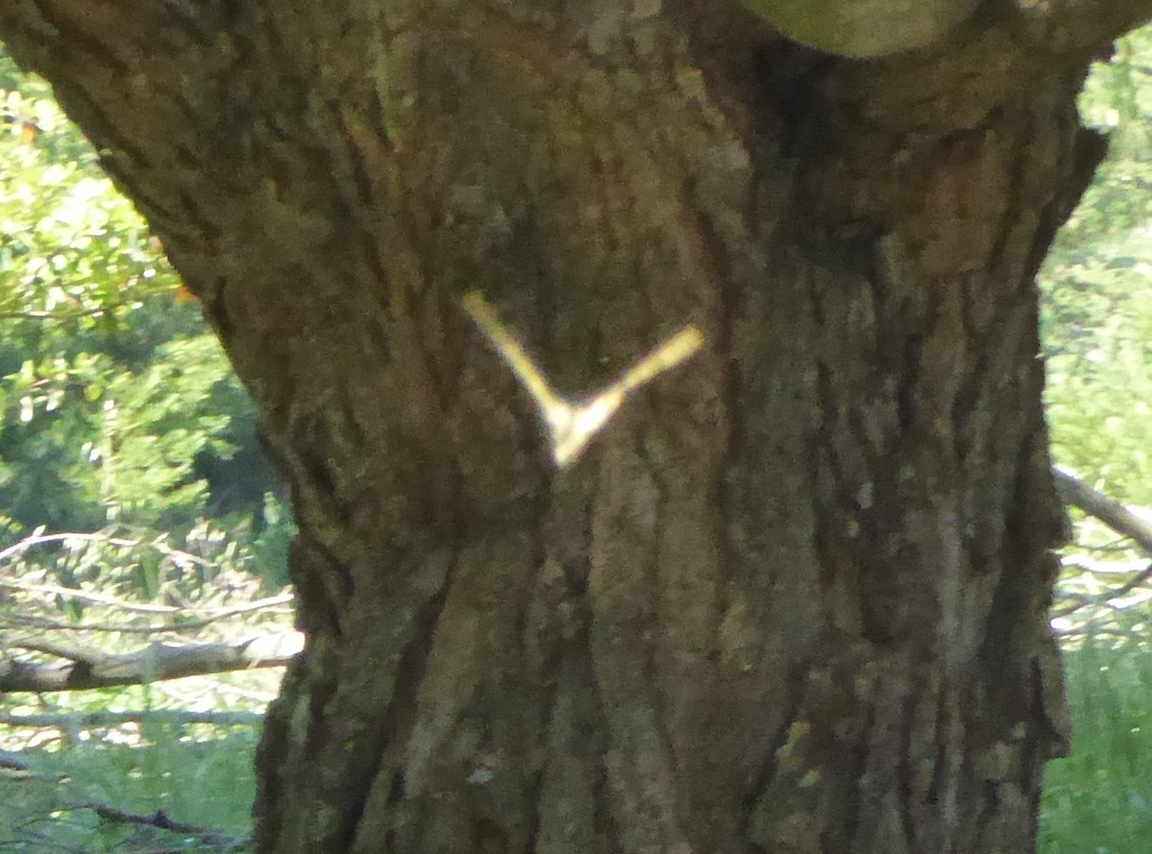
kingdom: Animalia
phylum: Arthropoda
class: Insecta
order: Lepidoptera
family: Papilionidae
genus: Papilio
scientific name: Papilio rutulus
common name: Western tiger swallowtail
